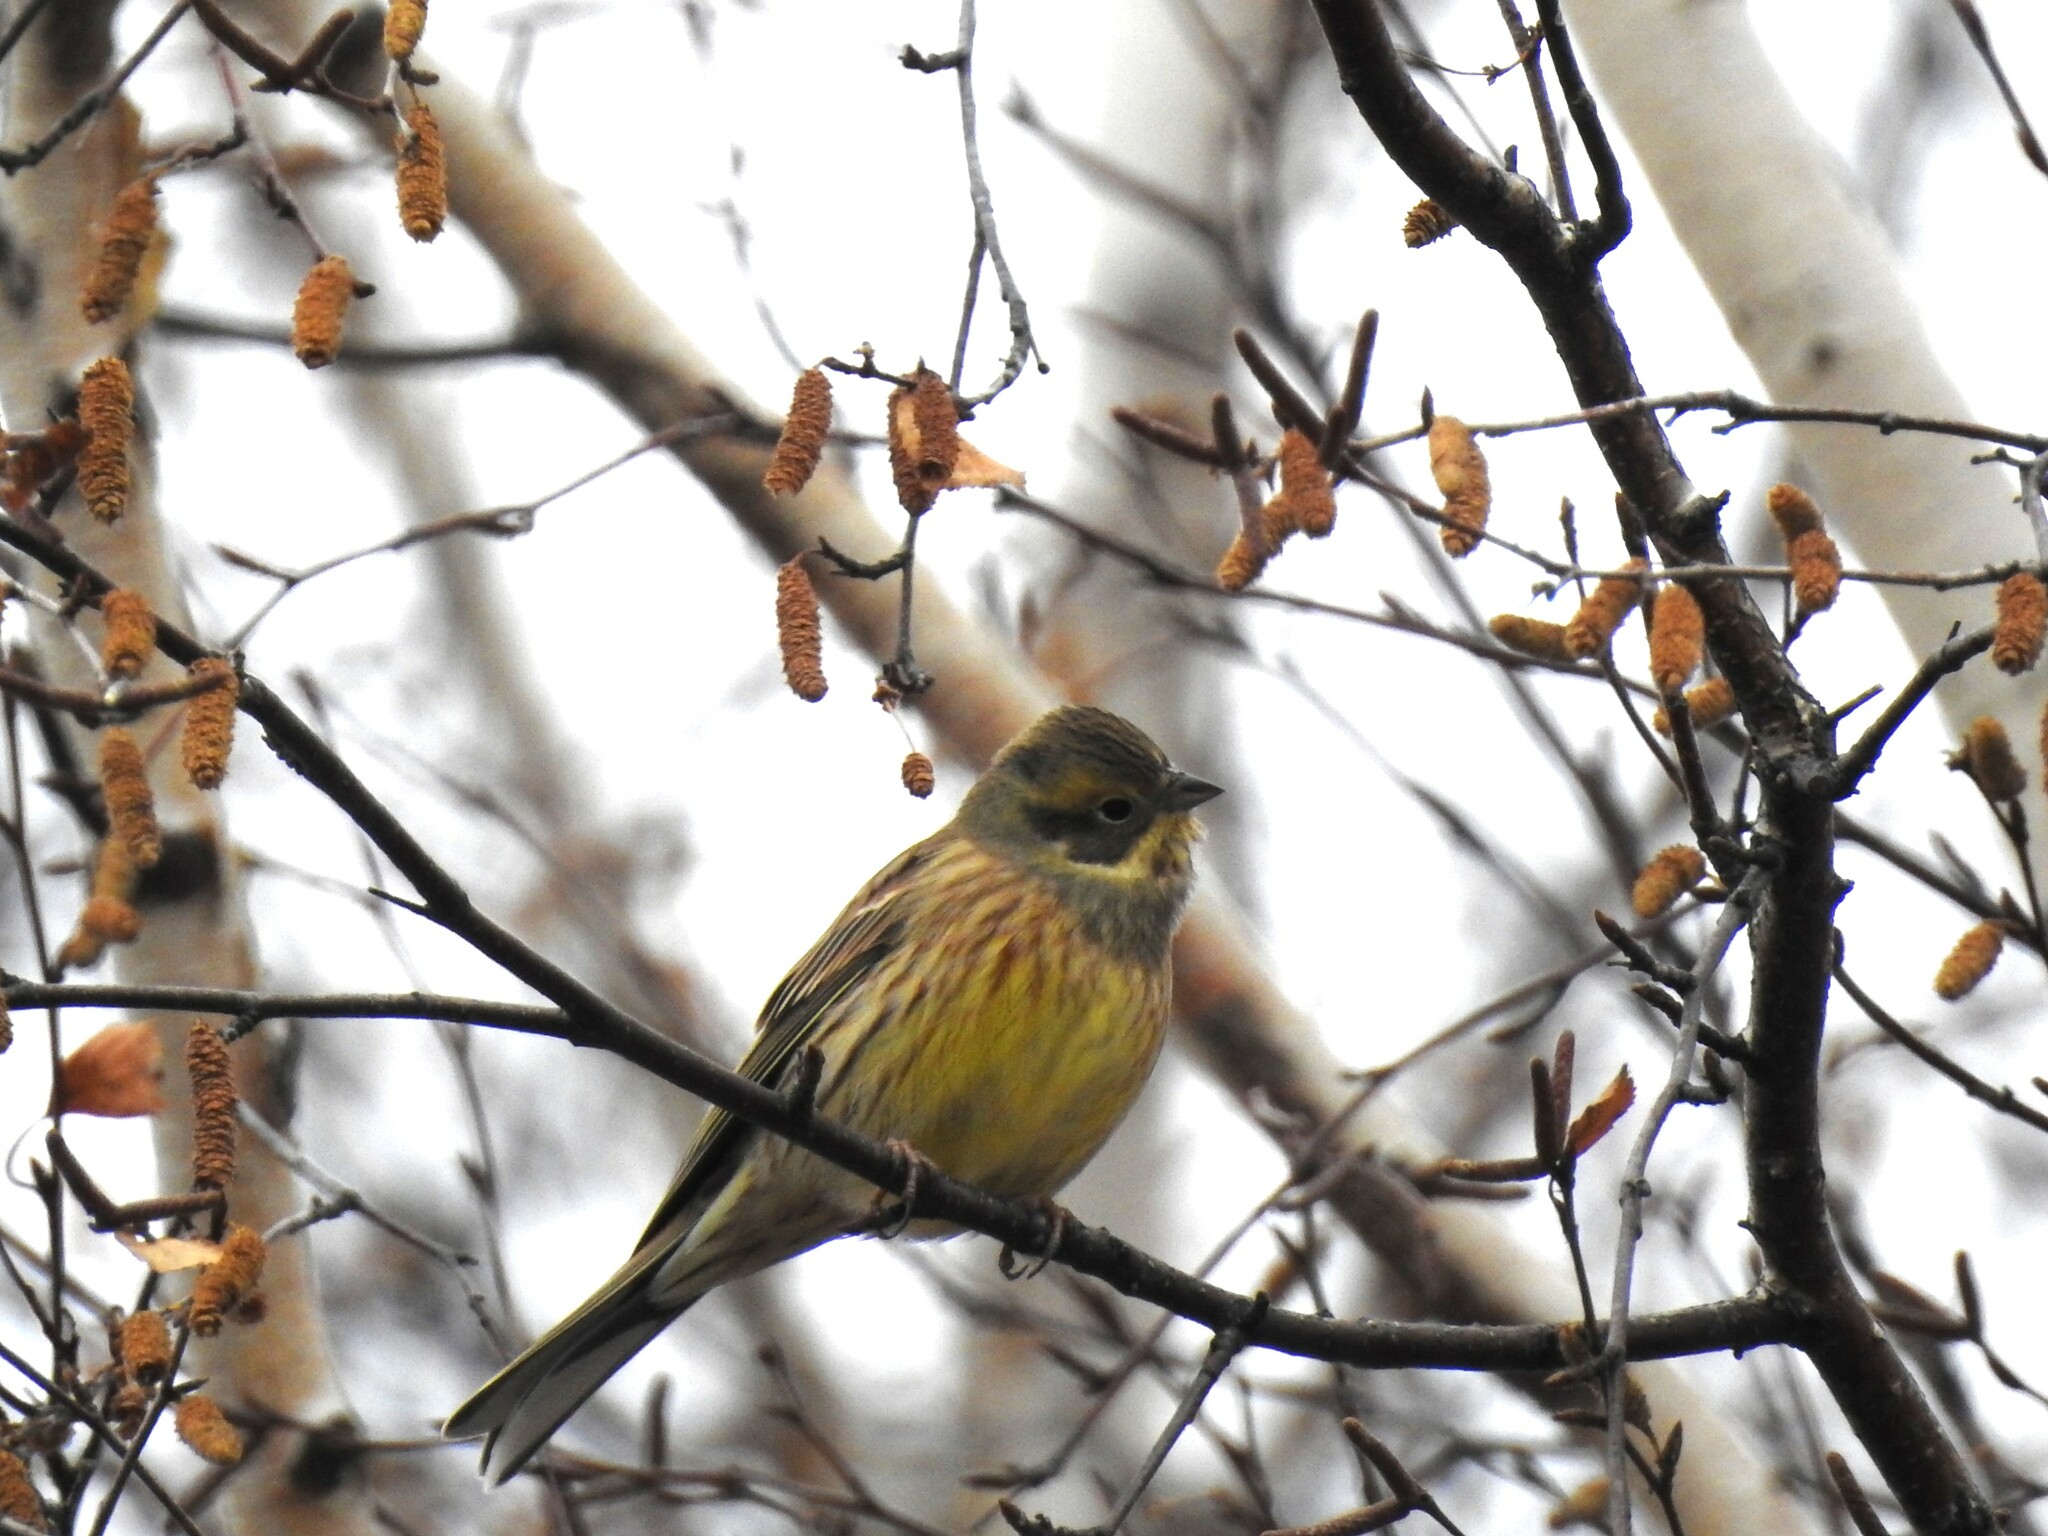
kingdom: Animalia
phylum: Chordata
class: Aves
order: Passeriformes
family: Emberizidae
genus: Emberiza
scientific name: Emberiza citrinella
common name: Yellowhammer
